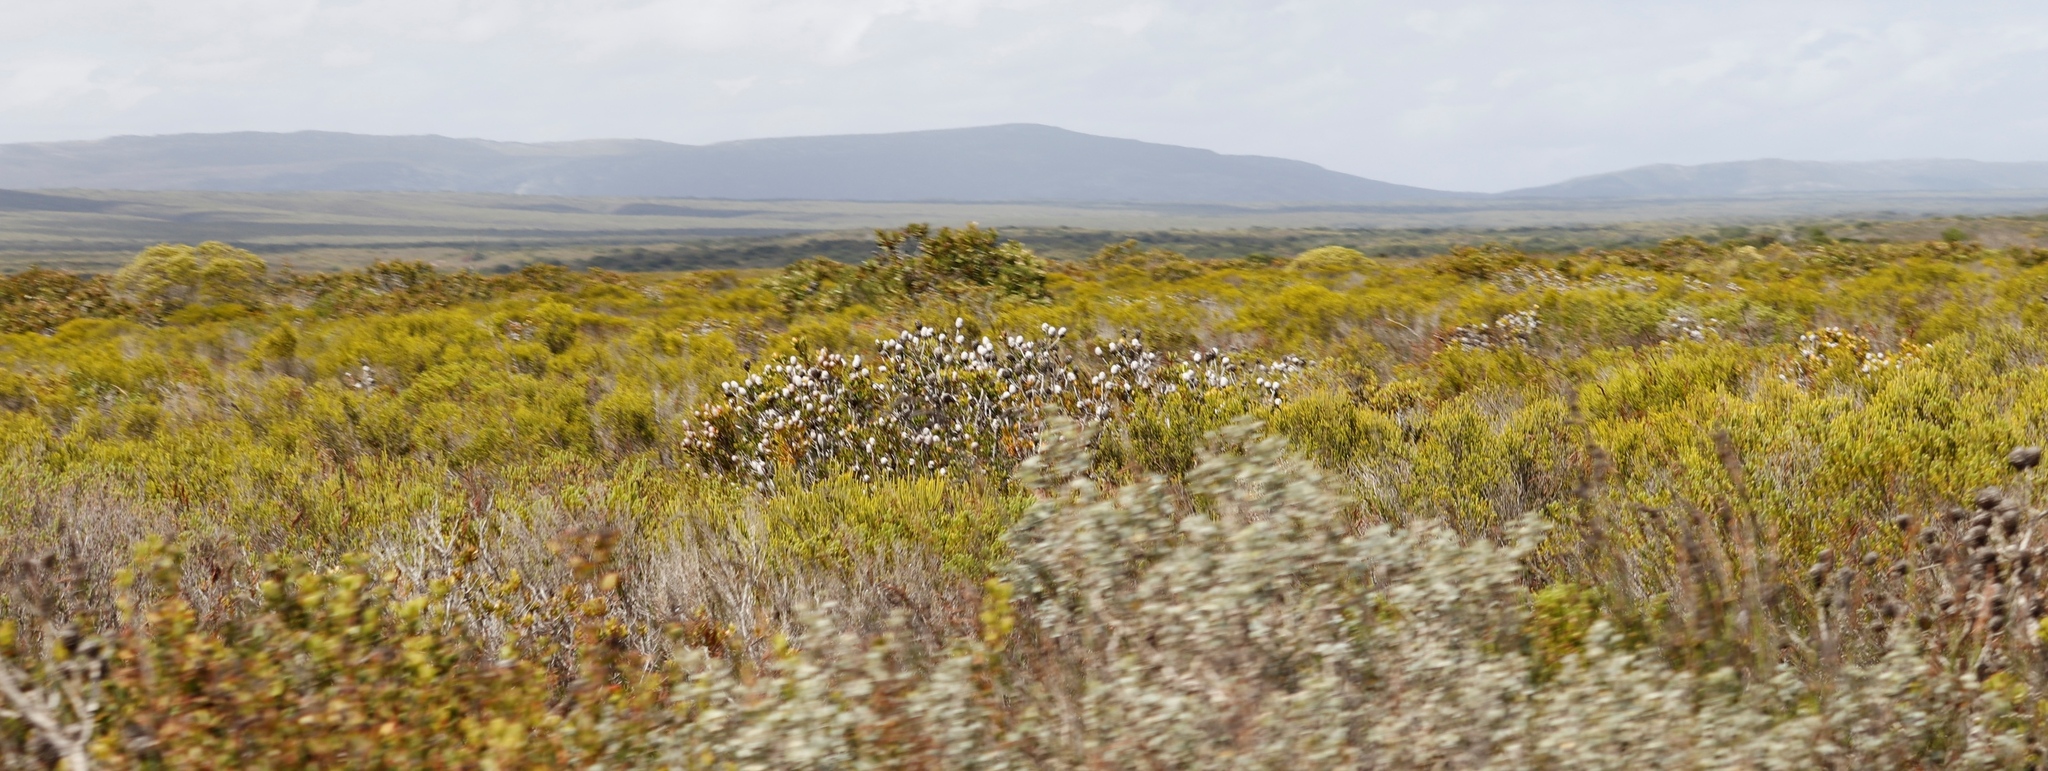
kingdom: Plantae
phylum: Tracheophyta
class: Magnoliopsida
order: Proteales
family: Proteaceae
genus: Leucadendron
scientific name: Leucadendron muirii
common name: Silver-ball conebush
